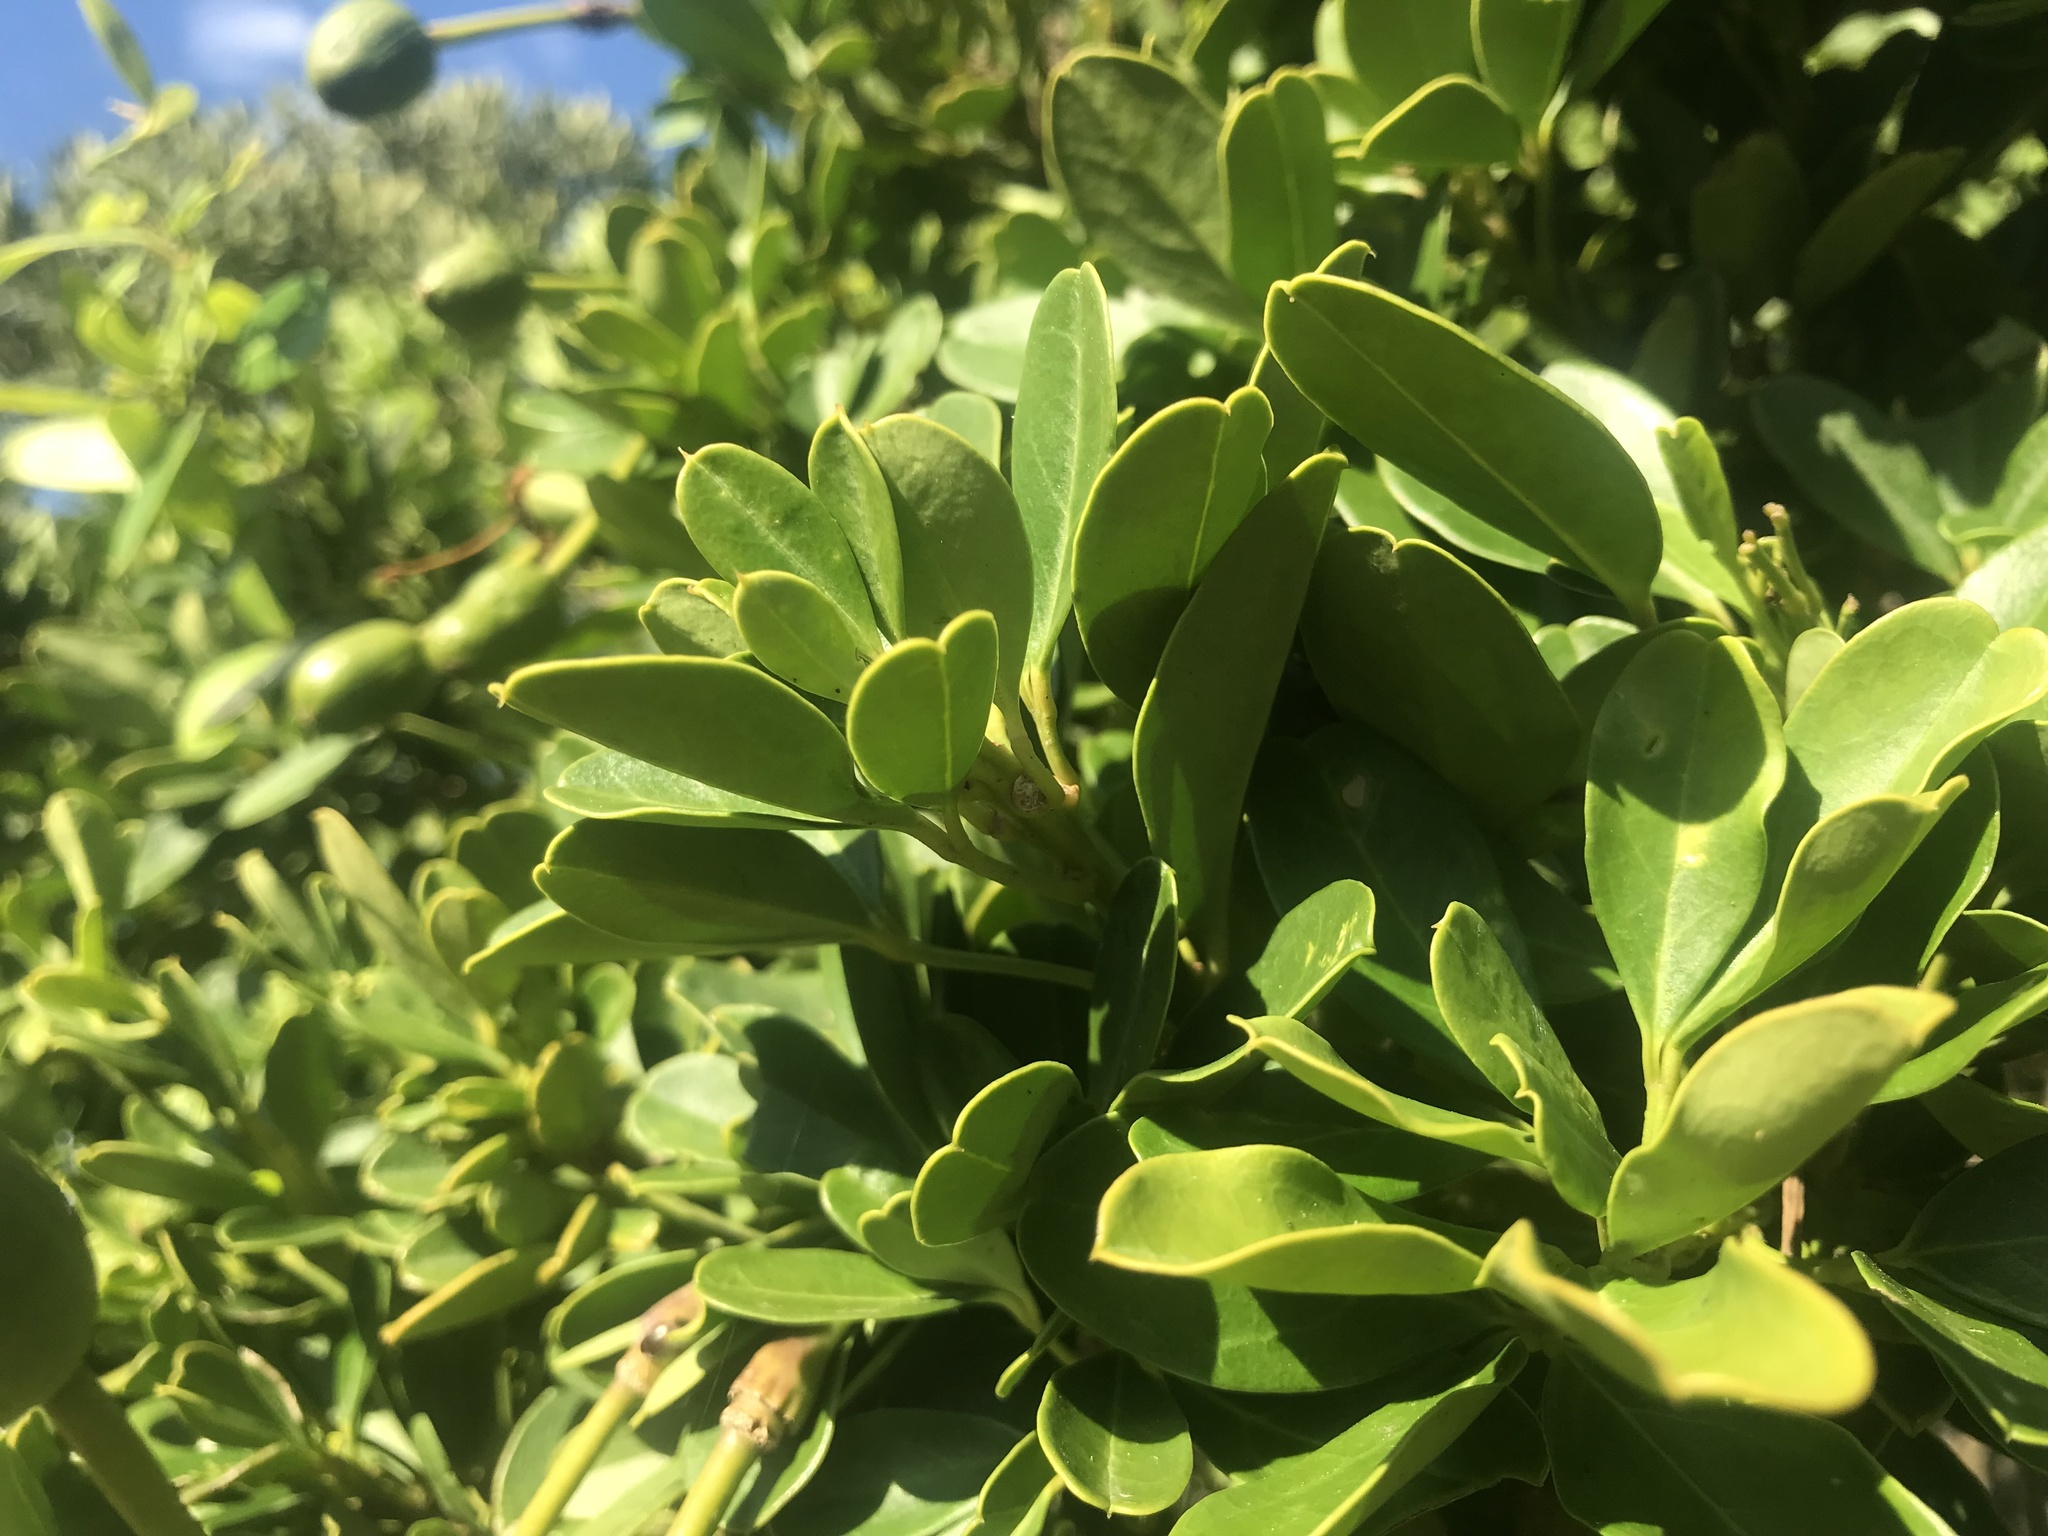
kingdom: Plantae
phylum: Tracheophyta
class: Magnoliopsida
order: Brassicales
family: Capparaceae
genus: Maerua
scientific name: Maerua cafra
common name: Bush maerua
